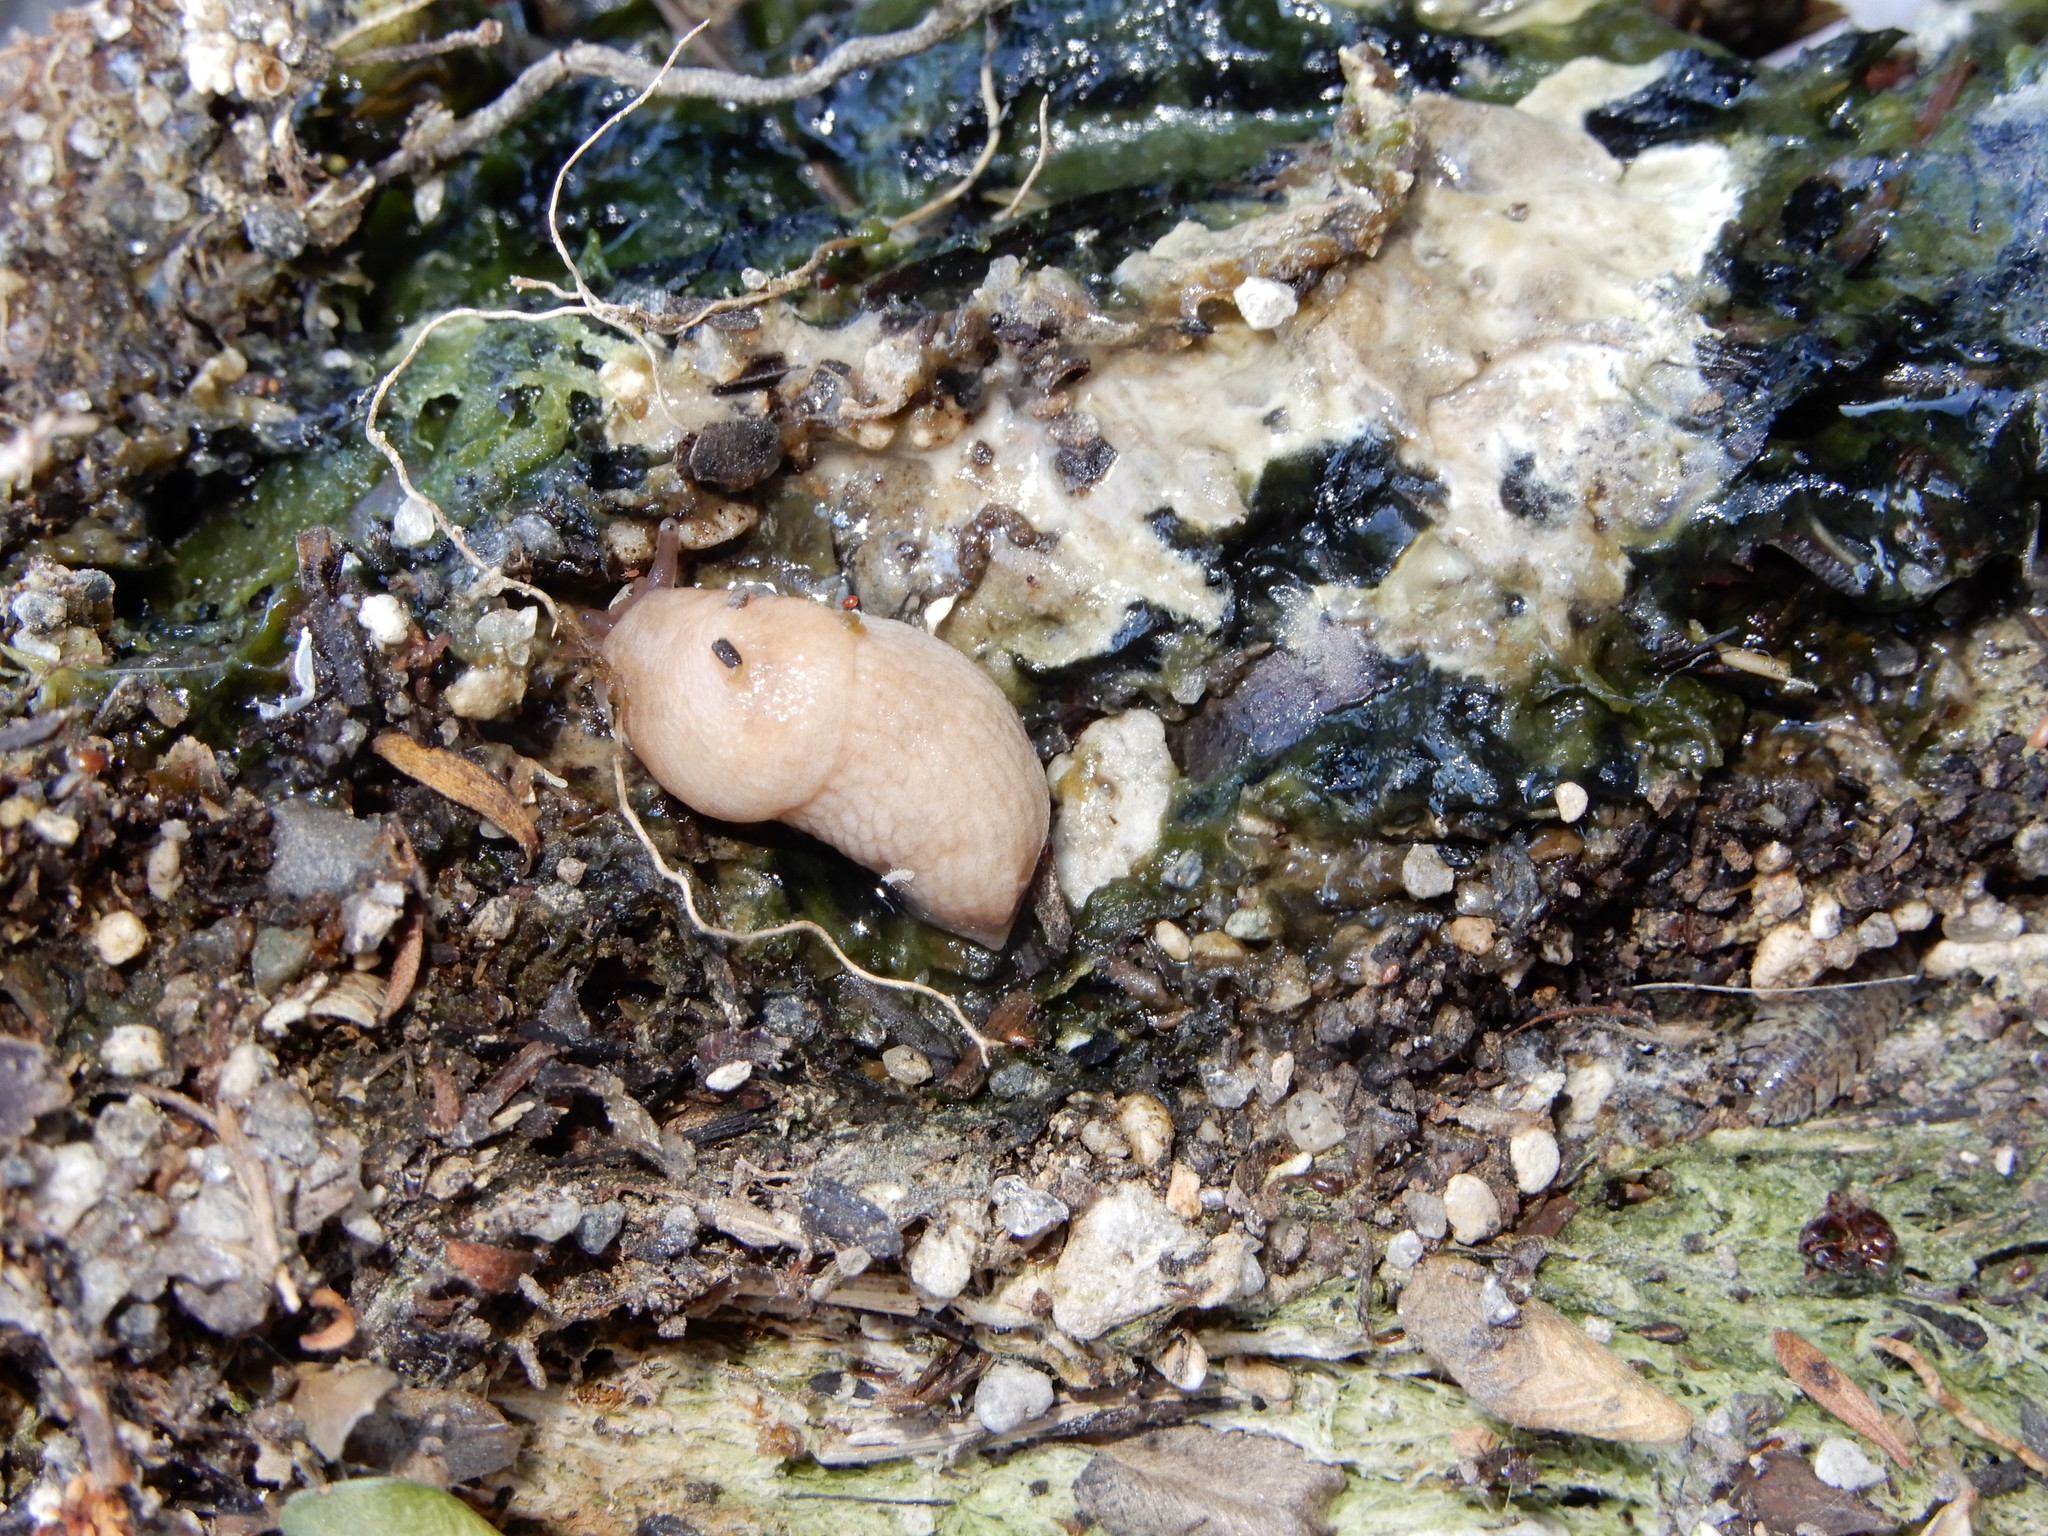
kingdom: Animalia
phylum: Mollusca
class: Gastropoda
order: Stylommatophora
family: Agriolimacidae
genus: Deroceras
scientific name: Deroceras reticulatum
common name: Gray field slug
